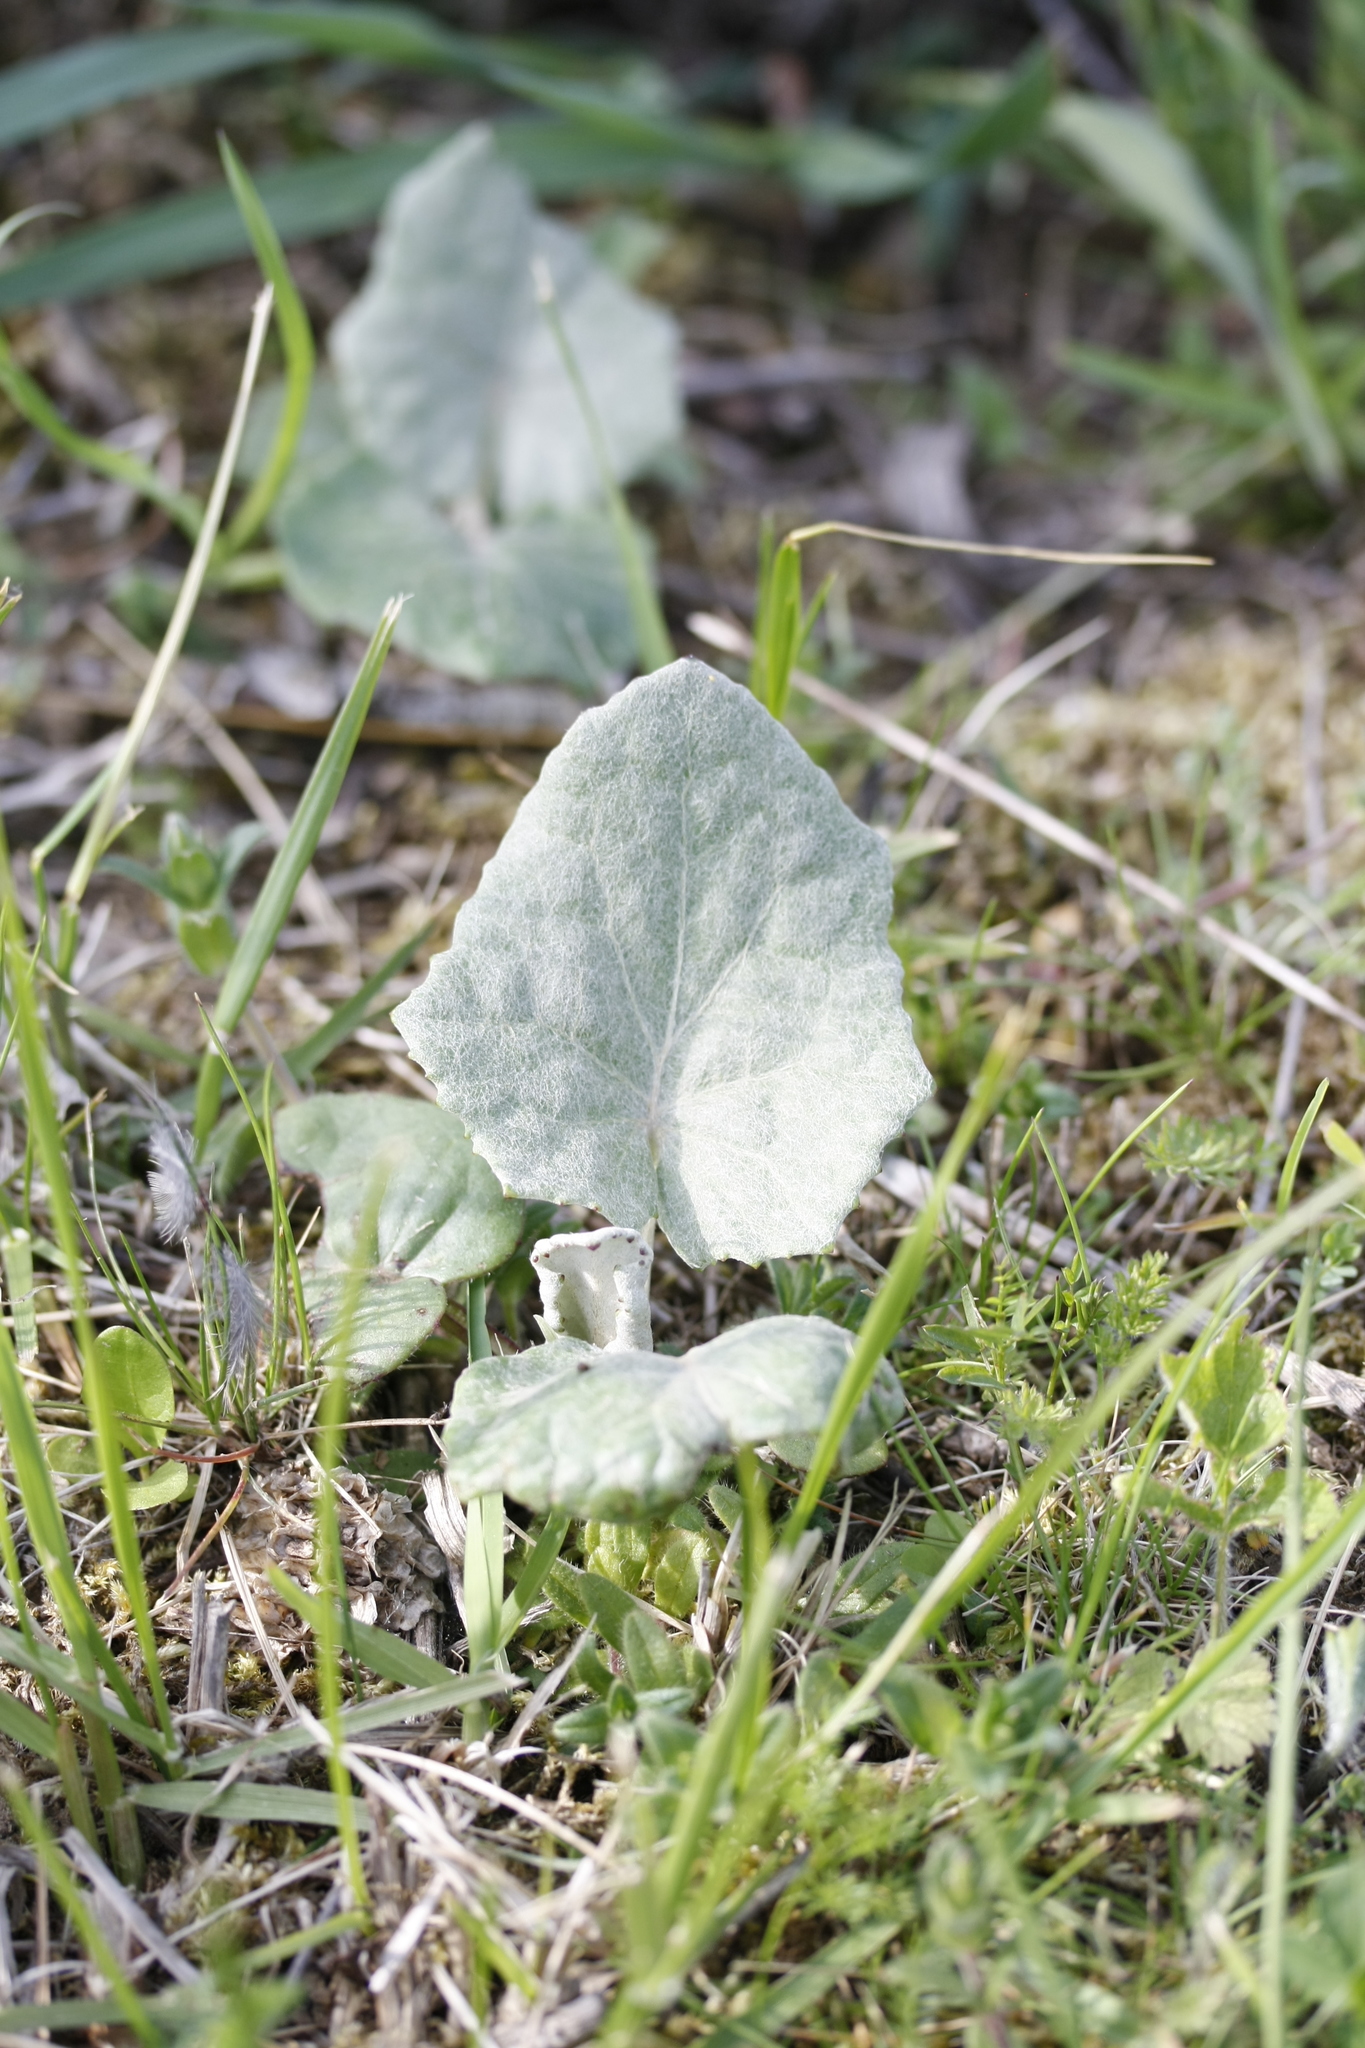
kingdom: Plantae
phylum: Tracheophyta
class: Magnoliopsida
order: Asterales
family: Asteraceae
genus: Tussilago
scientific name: Tussilago farfara
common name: Coltsfoot
